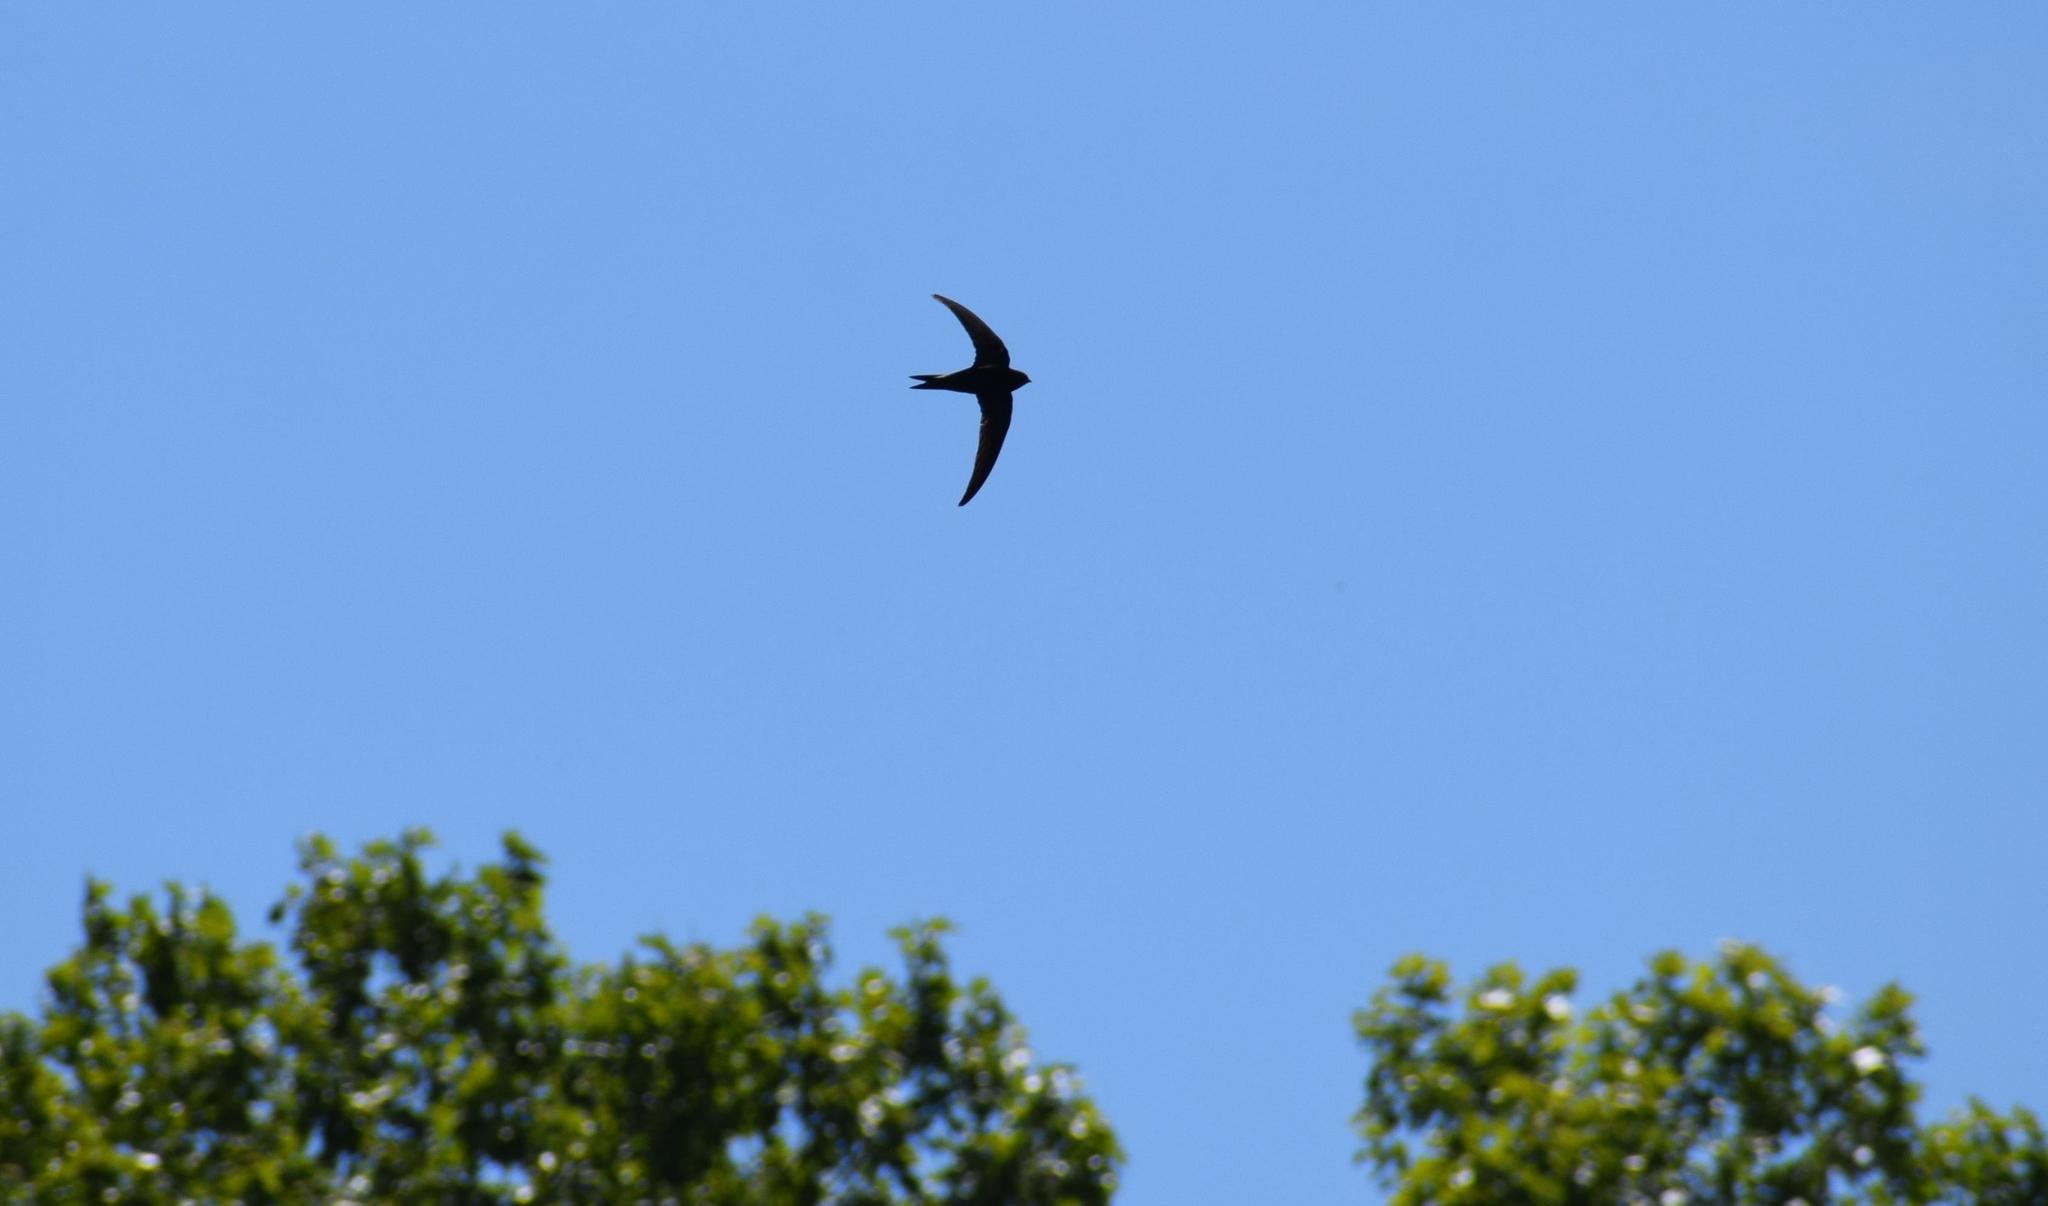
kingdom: Animalia
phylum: Chordata
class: Aves
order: Apodiformes
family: Apodidae
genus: Apus
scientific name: Apus apus
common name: Common swift
